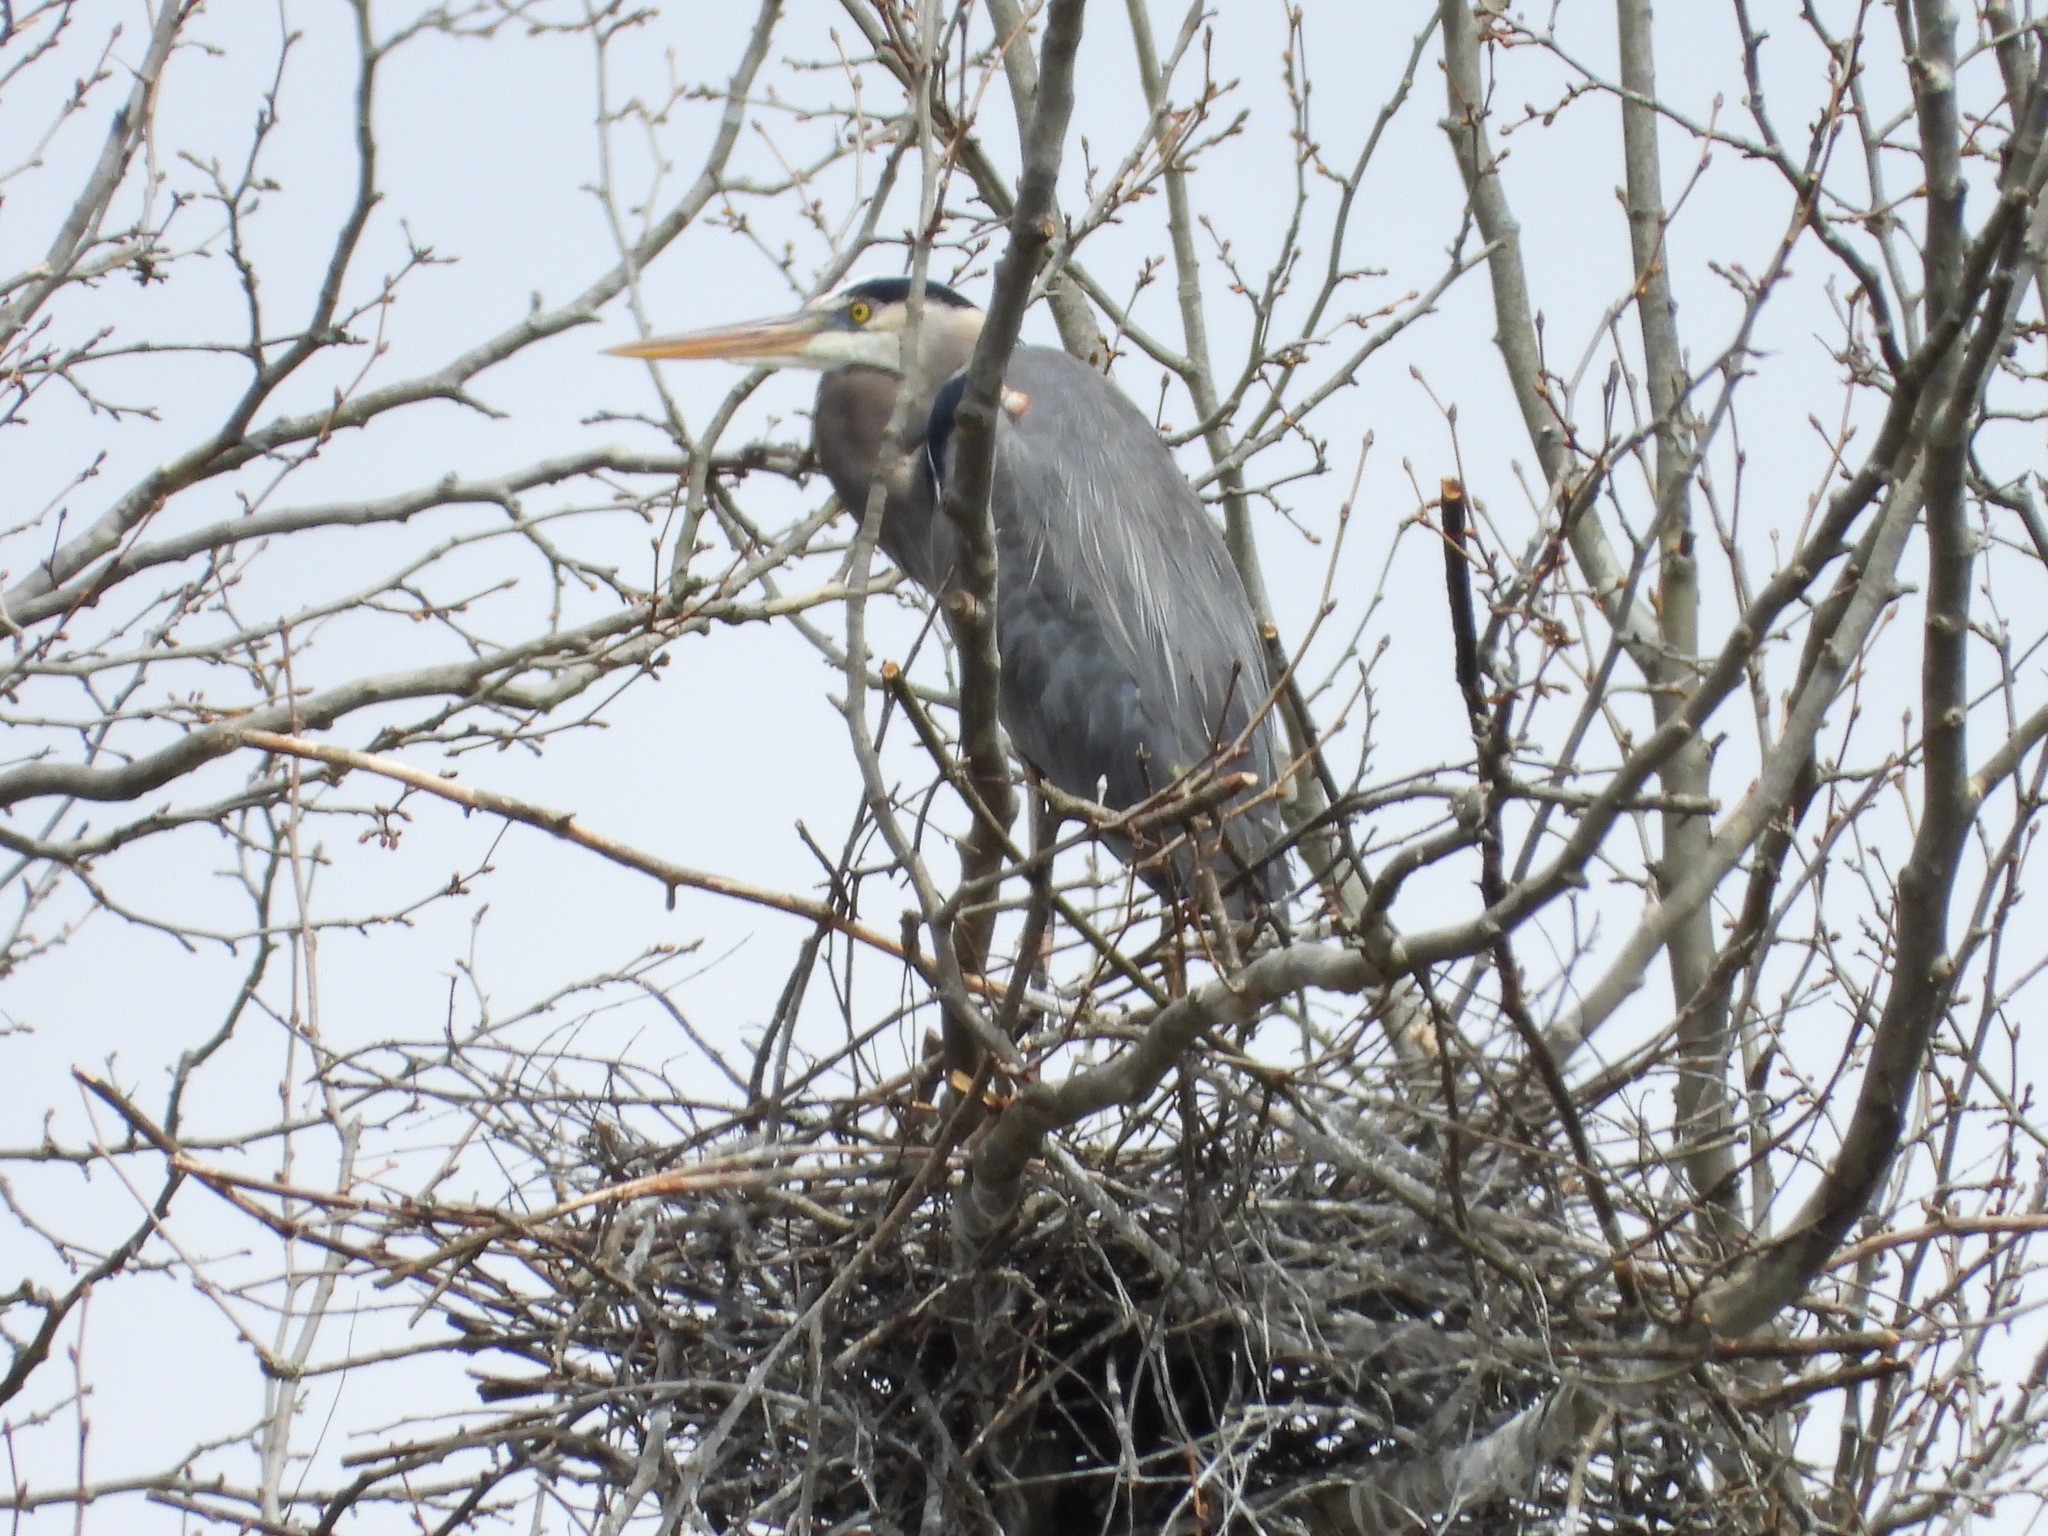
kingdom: Animalia
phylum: Chordata
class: Aves
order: Pelecaniformes
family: Ardeidae
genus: Ardea
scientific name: Ardea herodias
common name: Great blue heron
